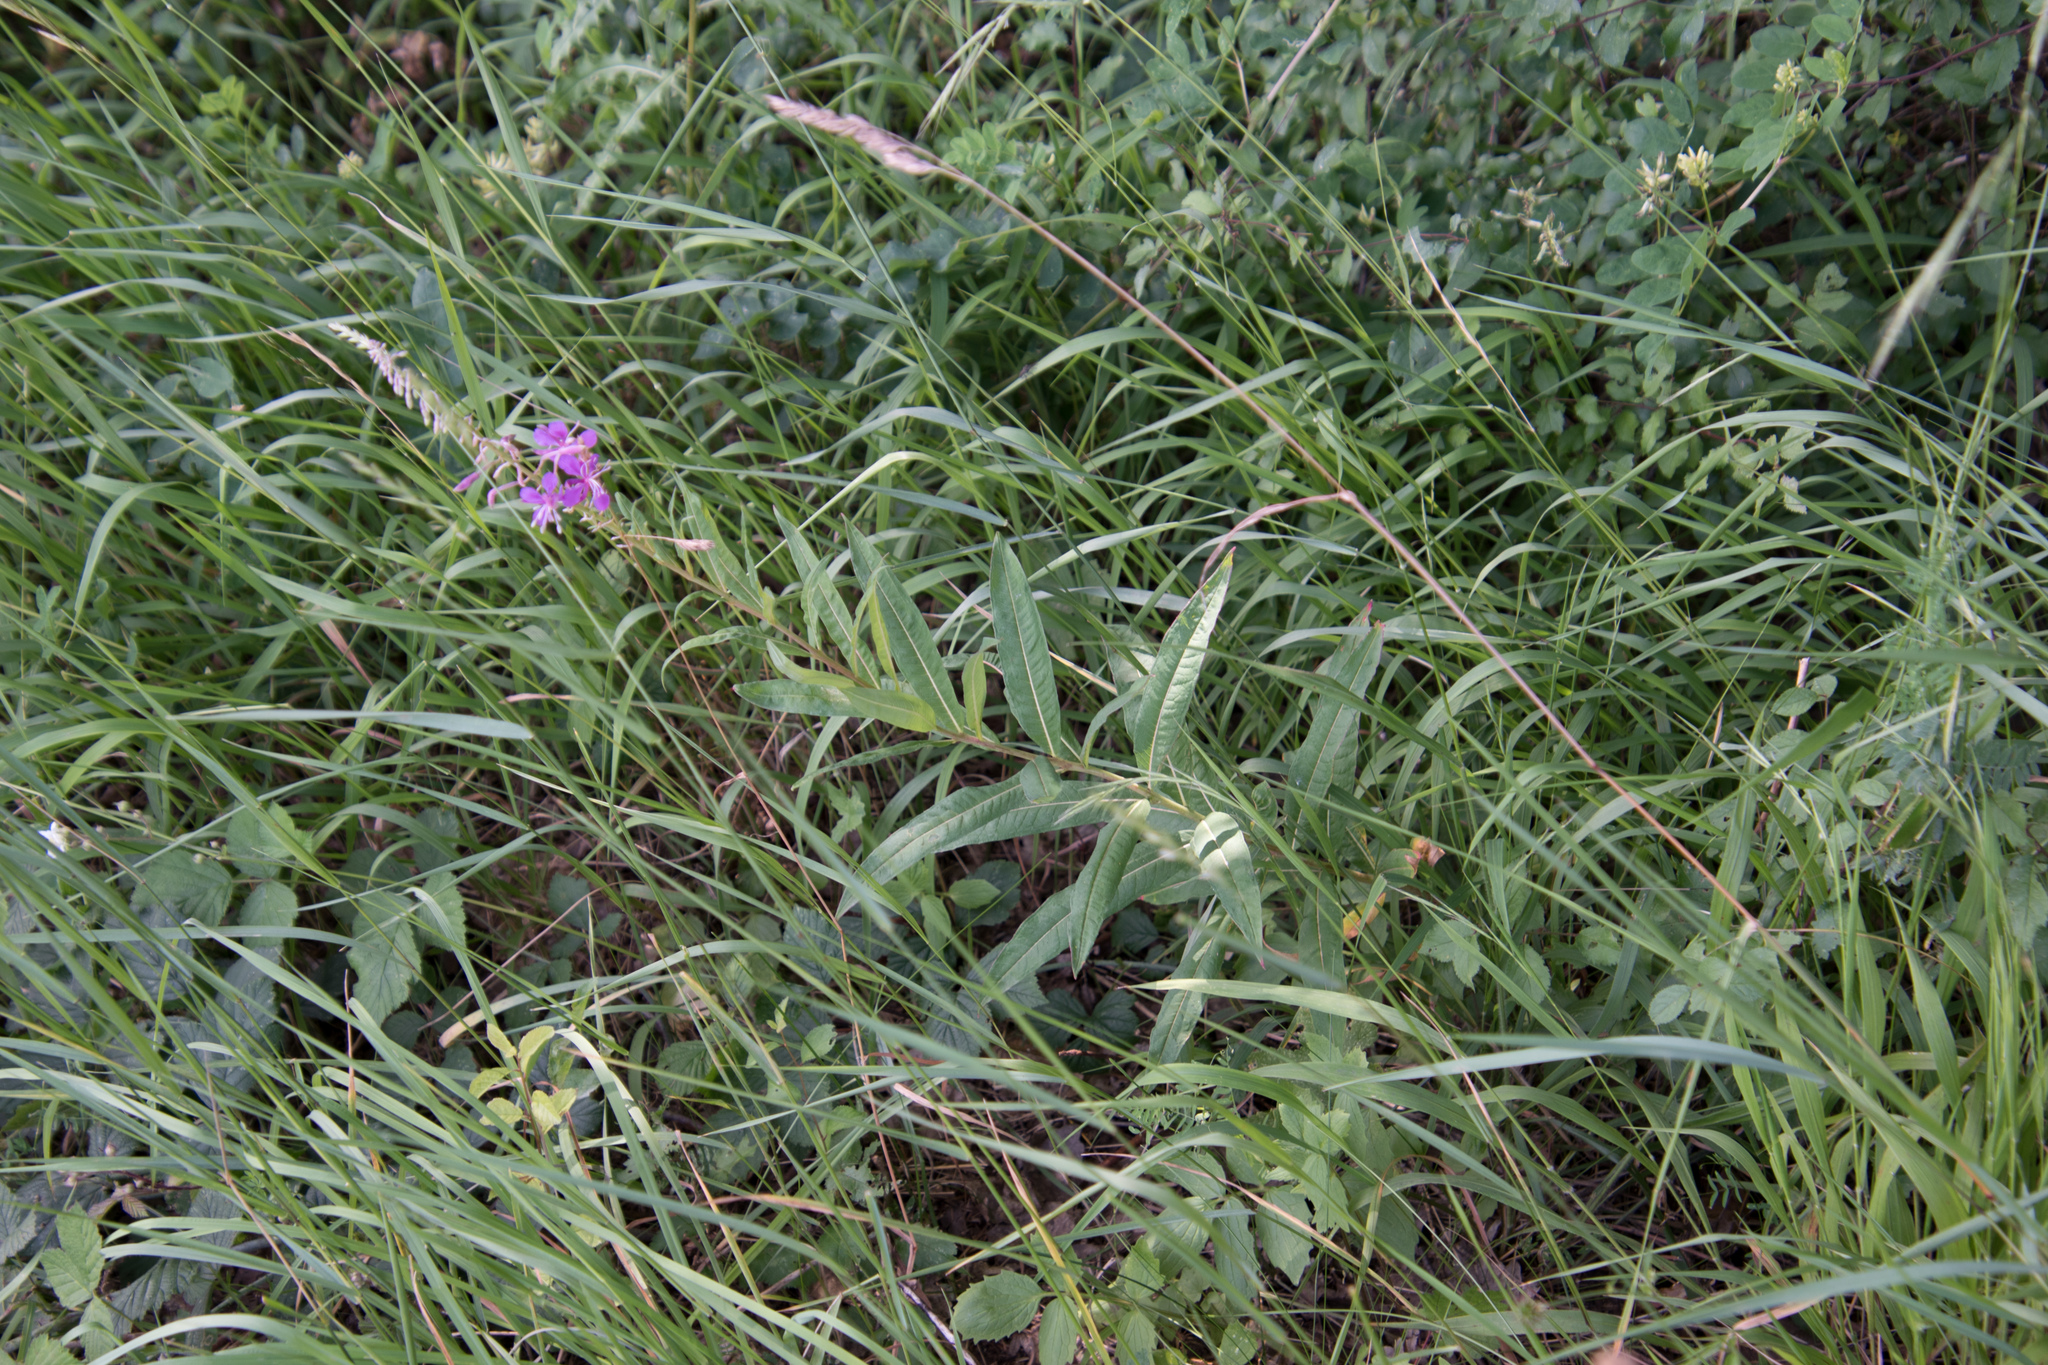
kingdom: Plantae
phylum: Tracheophyta
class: Magnoliopsida
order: Myrtales
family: Onagraceae
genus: Chamaenerion
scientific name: Chamaenerion angustifolium
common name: Fireweed
